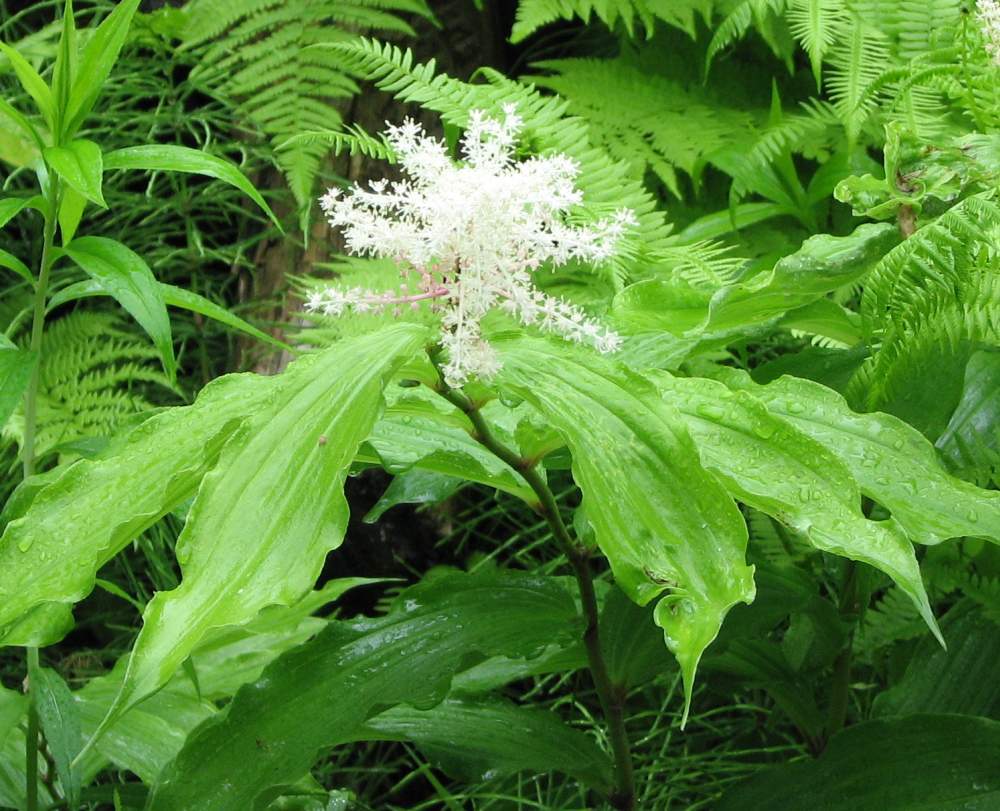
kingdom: Plantae
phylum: Tracheophyta
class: Liliopsida
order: Asparagales
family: Asparagaceae
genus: Maianthemum
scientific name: Maianthemum racemosum
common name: False spikenard
